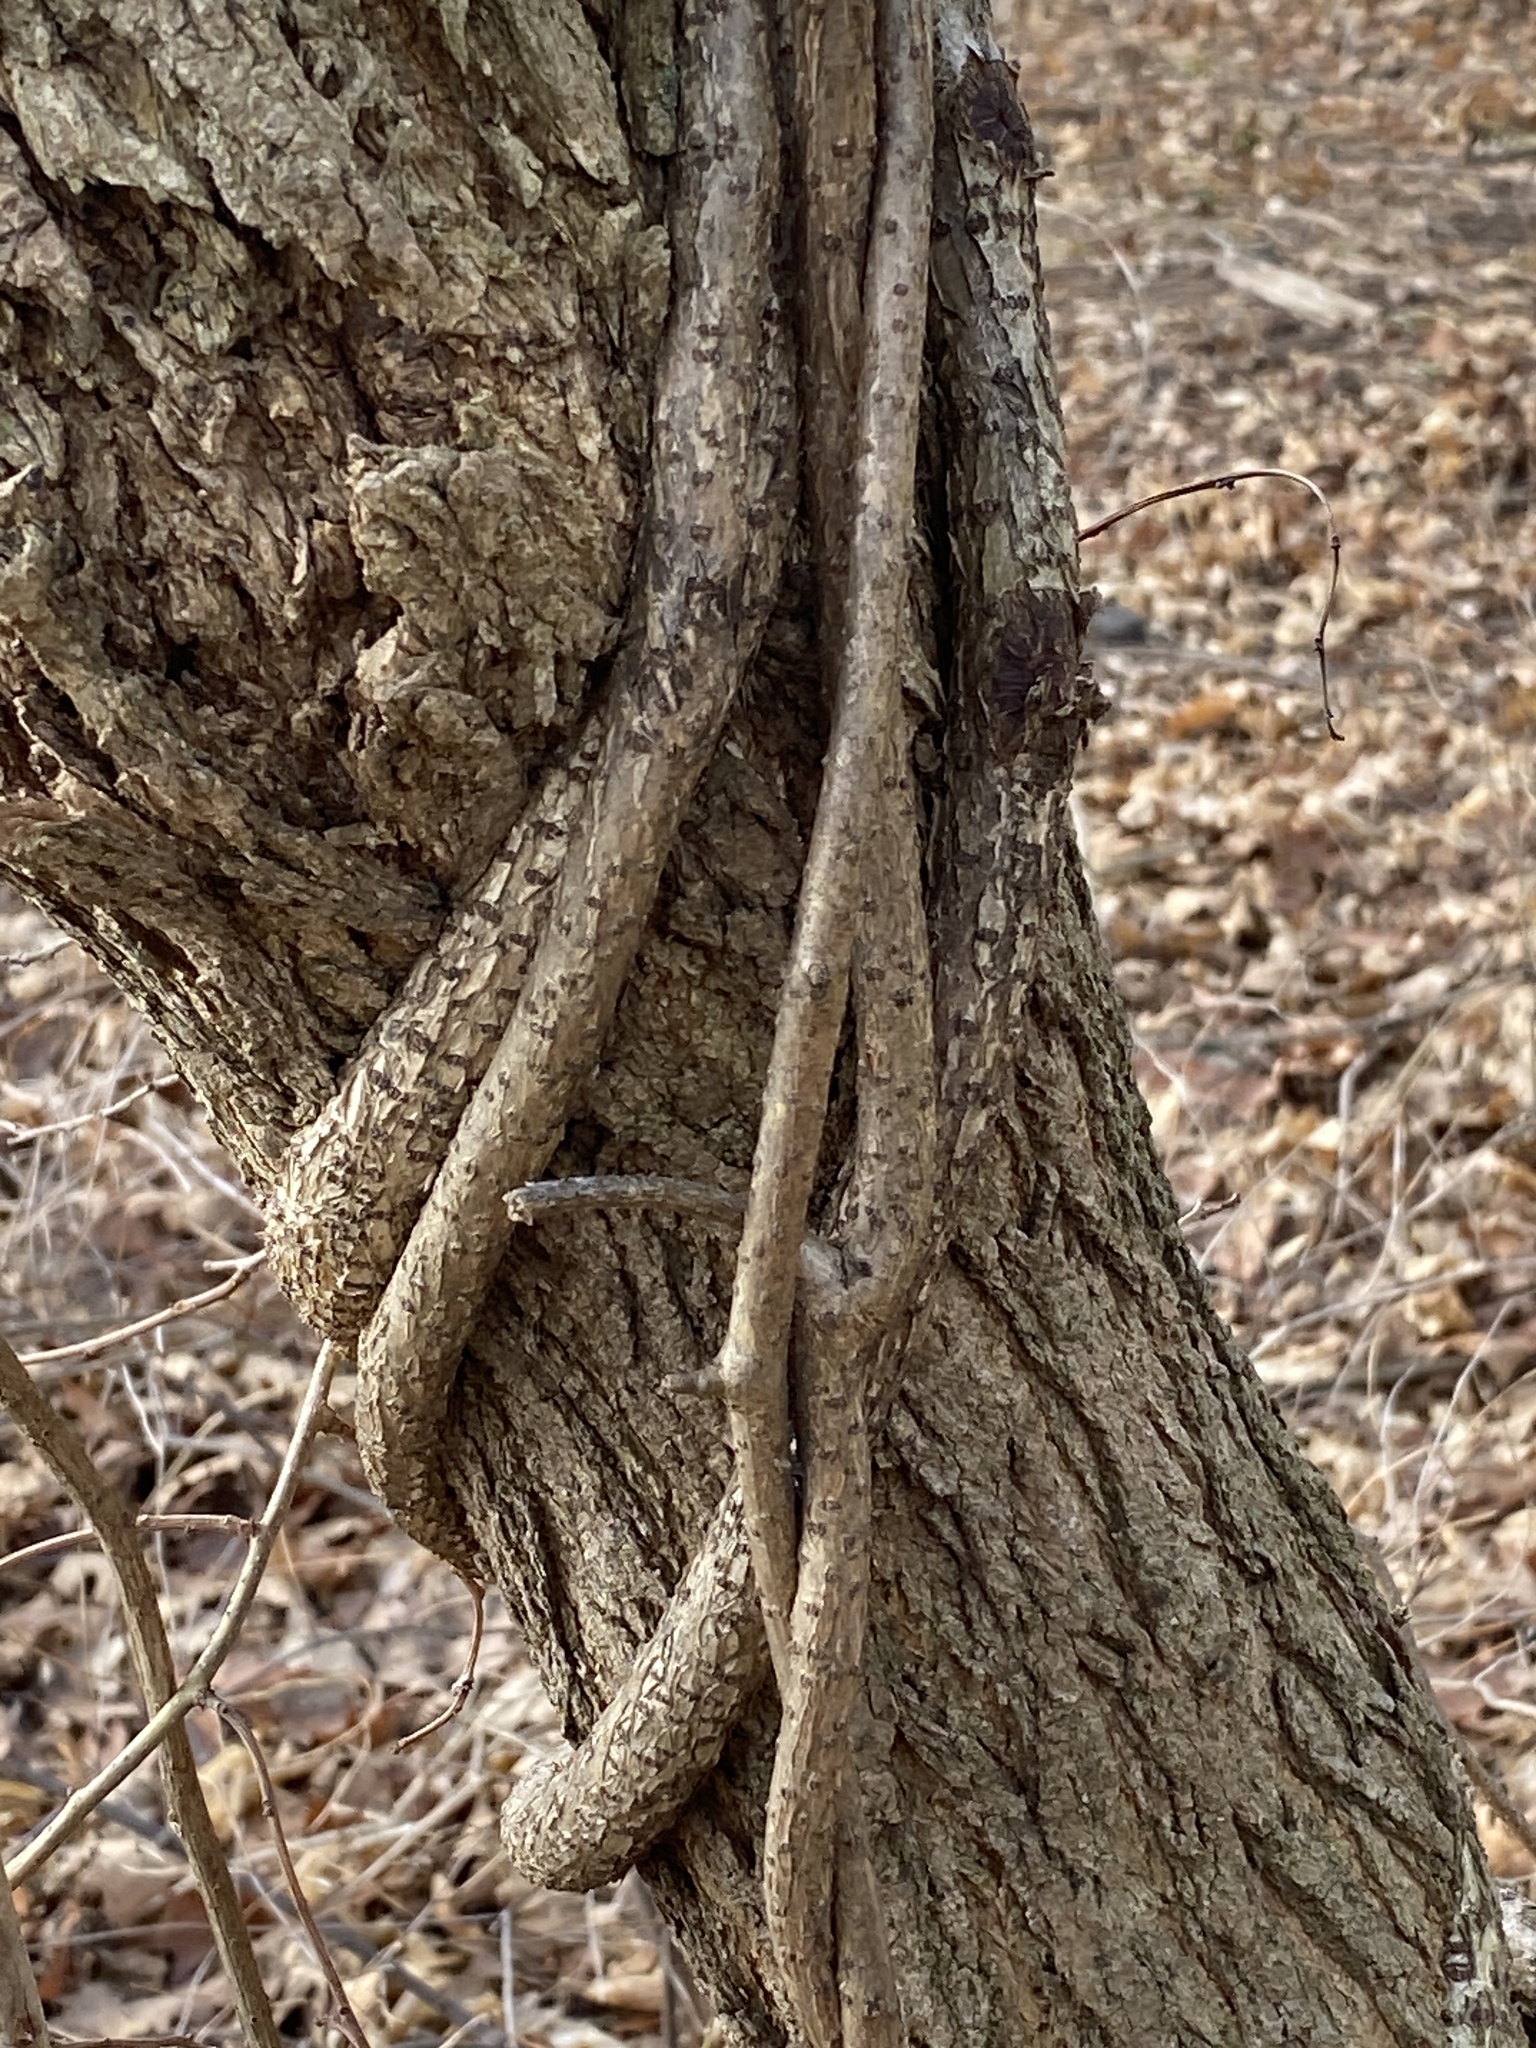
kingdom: Plantae
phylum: Tracheophyta
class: Magnoliopsida
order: Celastrales
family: Celastraceae
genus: Celastrus
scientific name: Celastrus orbiculatus
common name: Oriental bittersweet
